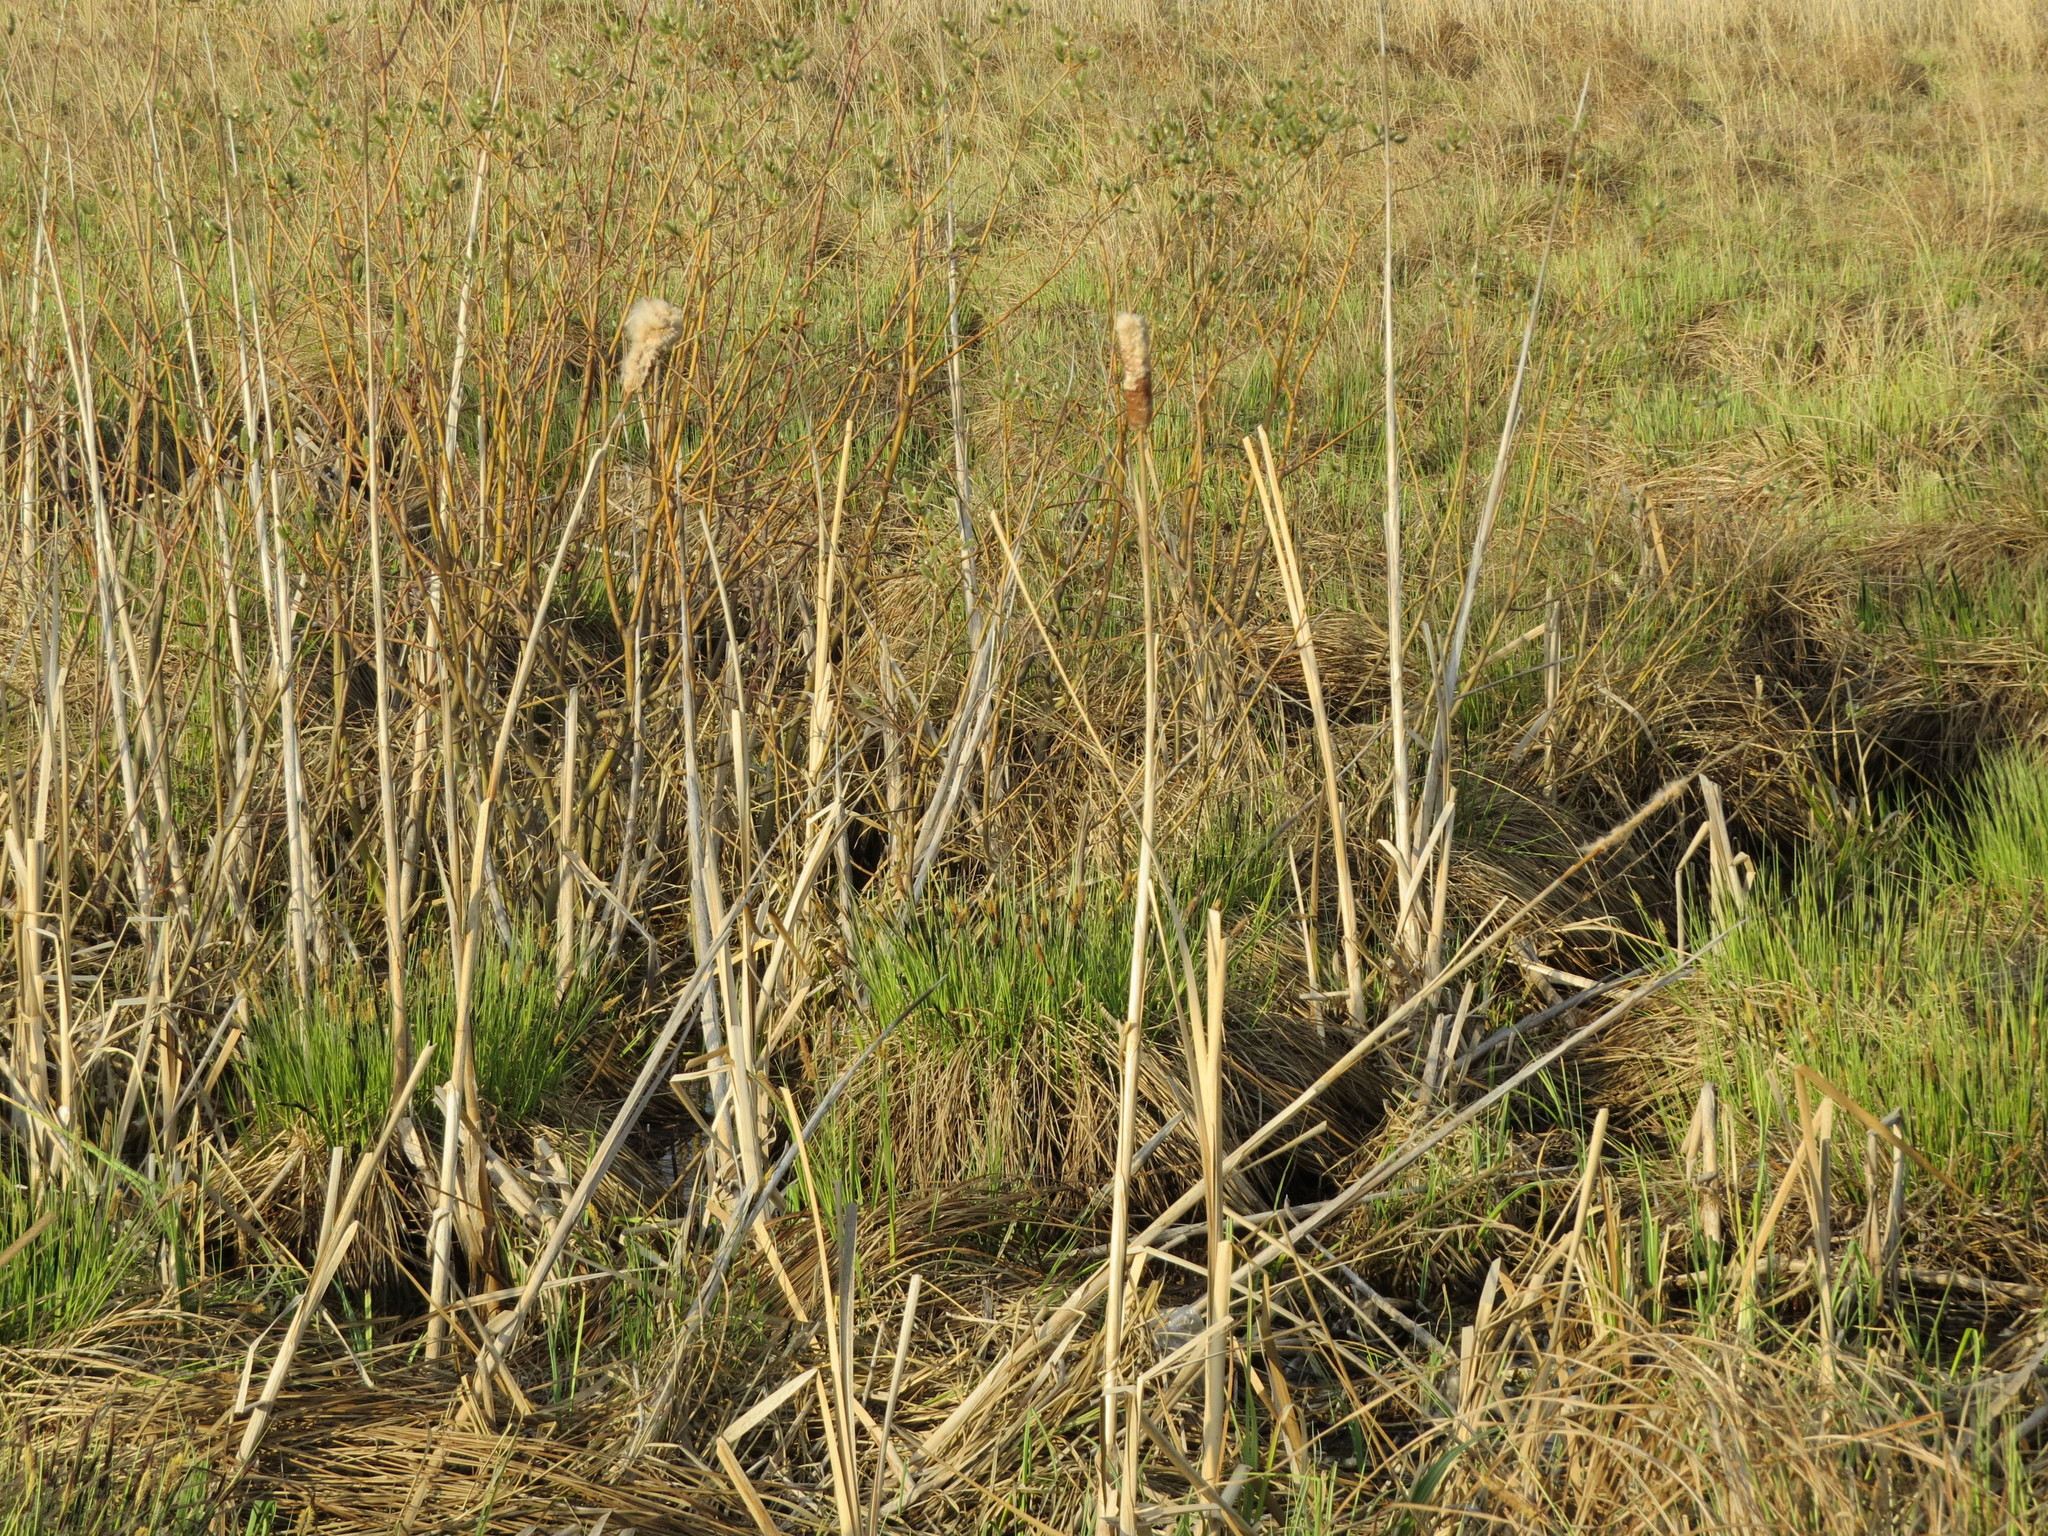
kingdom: Plantae
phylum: Tracheophyta
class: Liliopsida
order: Poales
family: Typhaceae
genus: Typha
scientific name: Typha latifolia
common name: Broadleaf cattail
